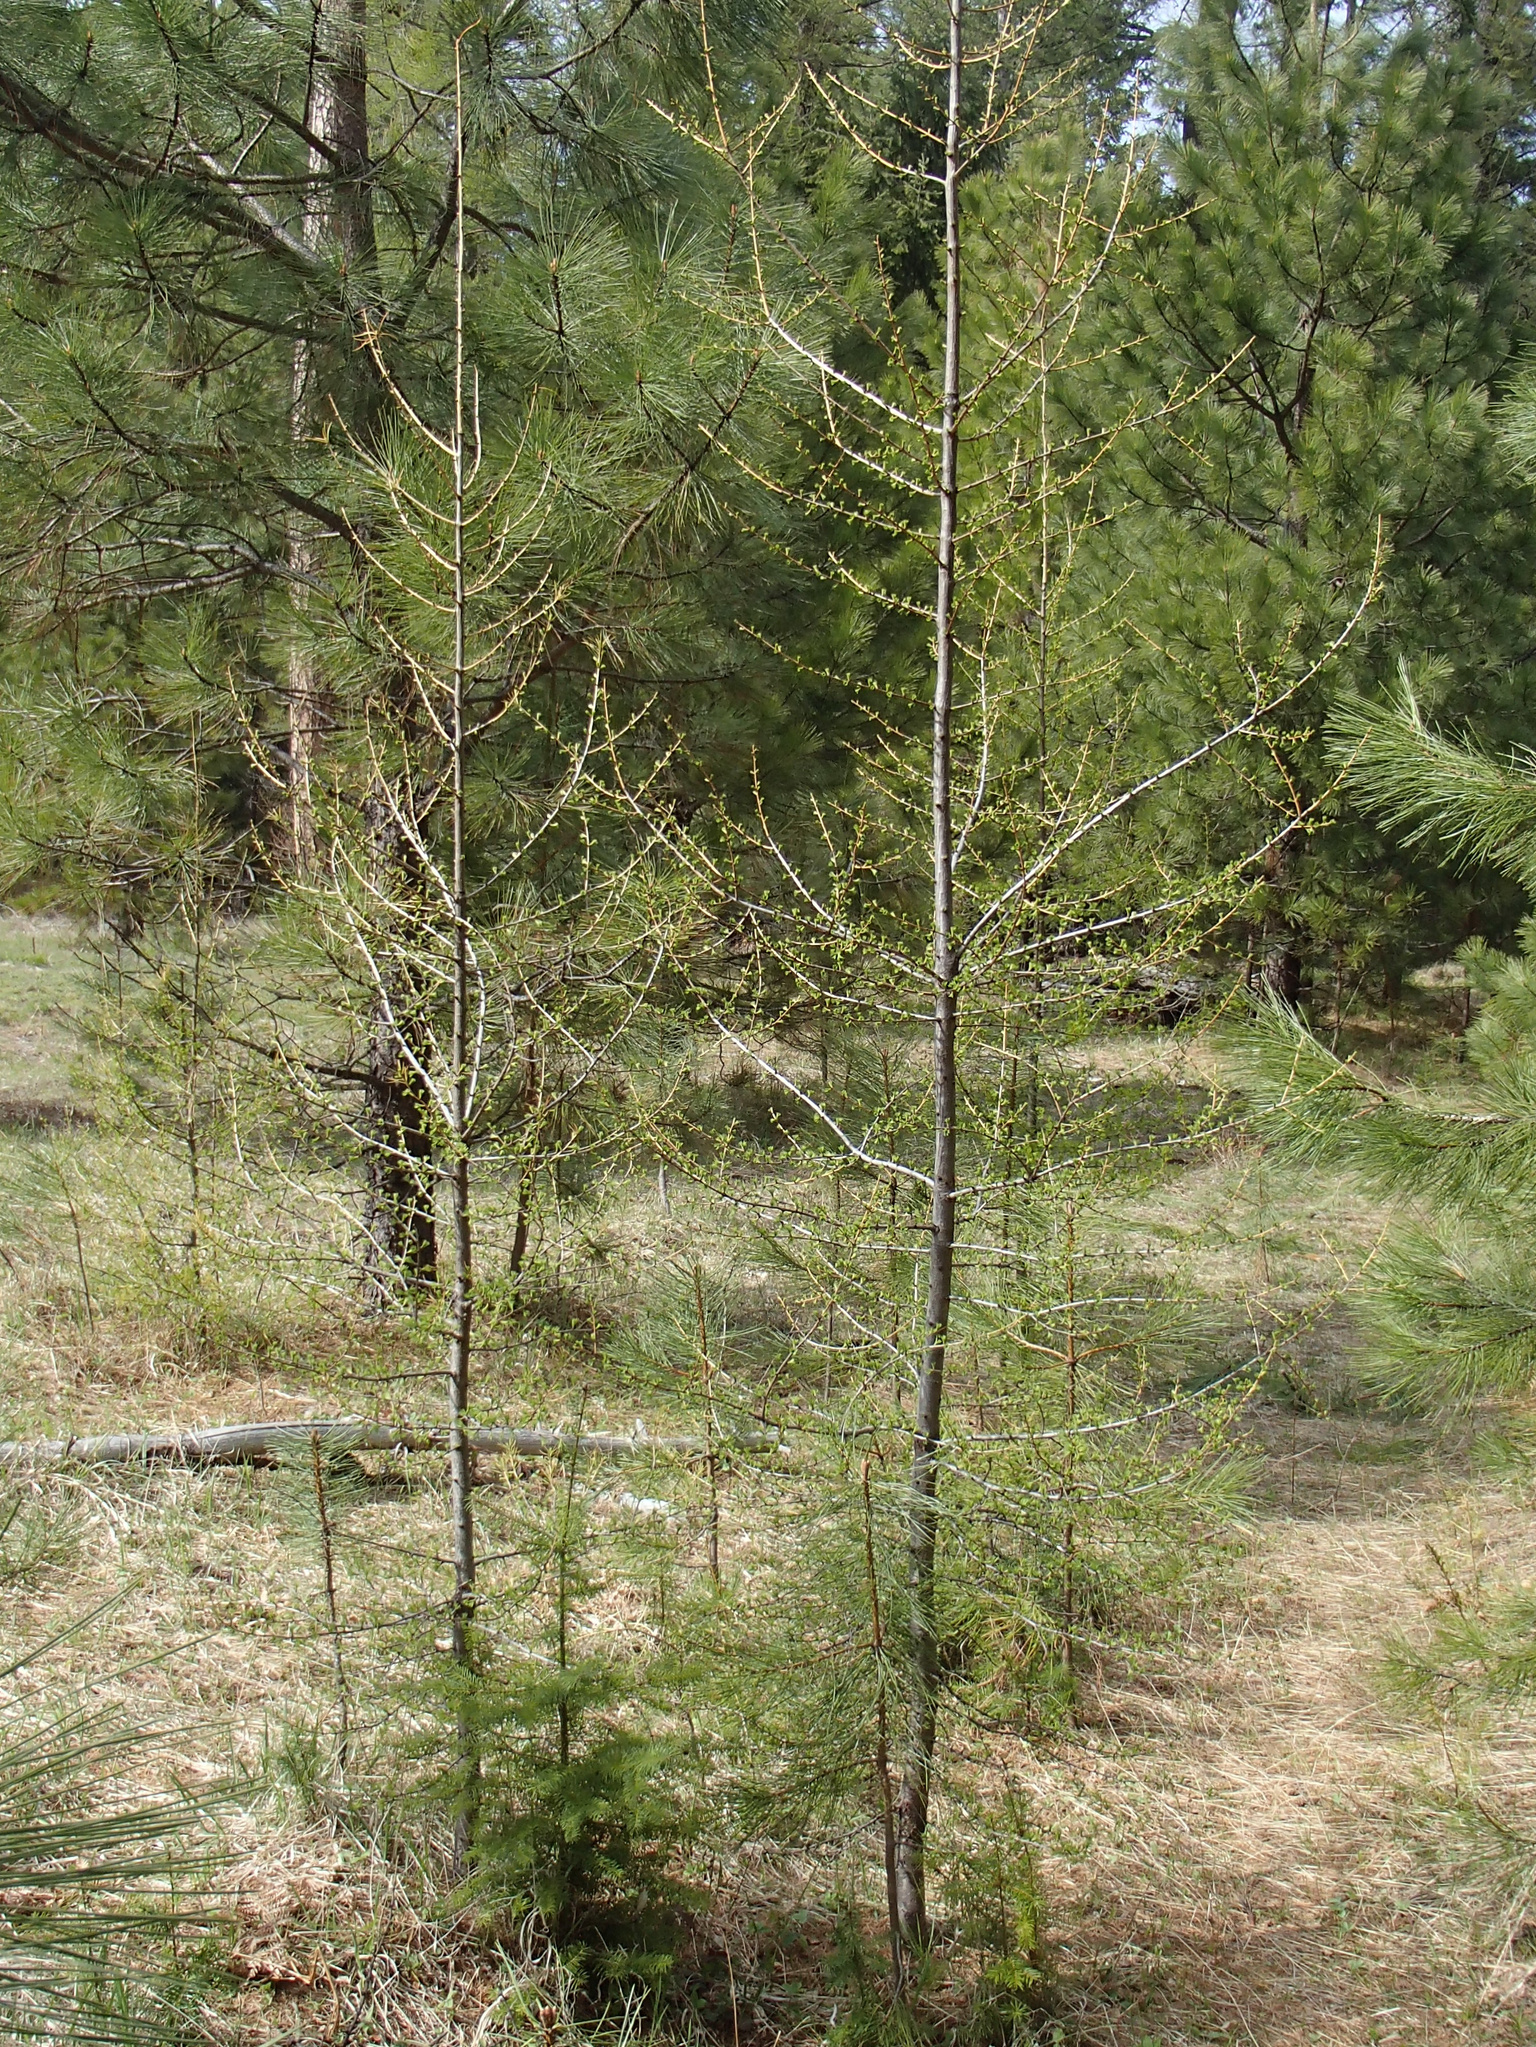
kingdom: Plantae
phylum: Tracheophyta
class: Pinopsida
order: Pinales
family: Pinaceae
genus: Larix
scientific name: Larix occidentalis
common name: Western larch
